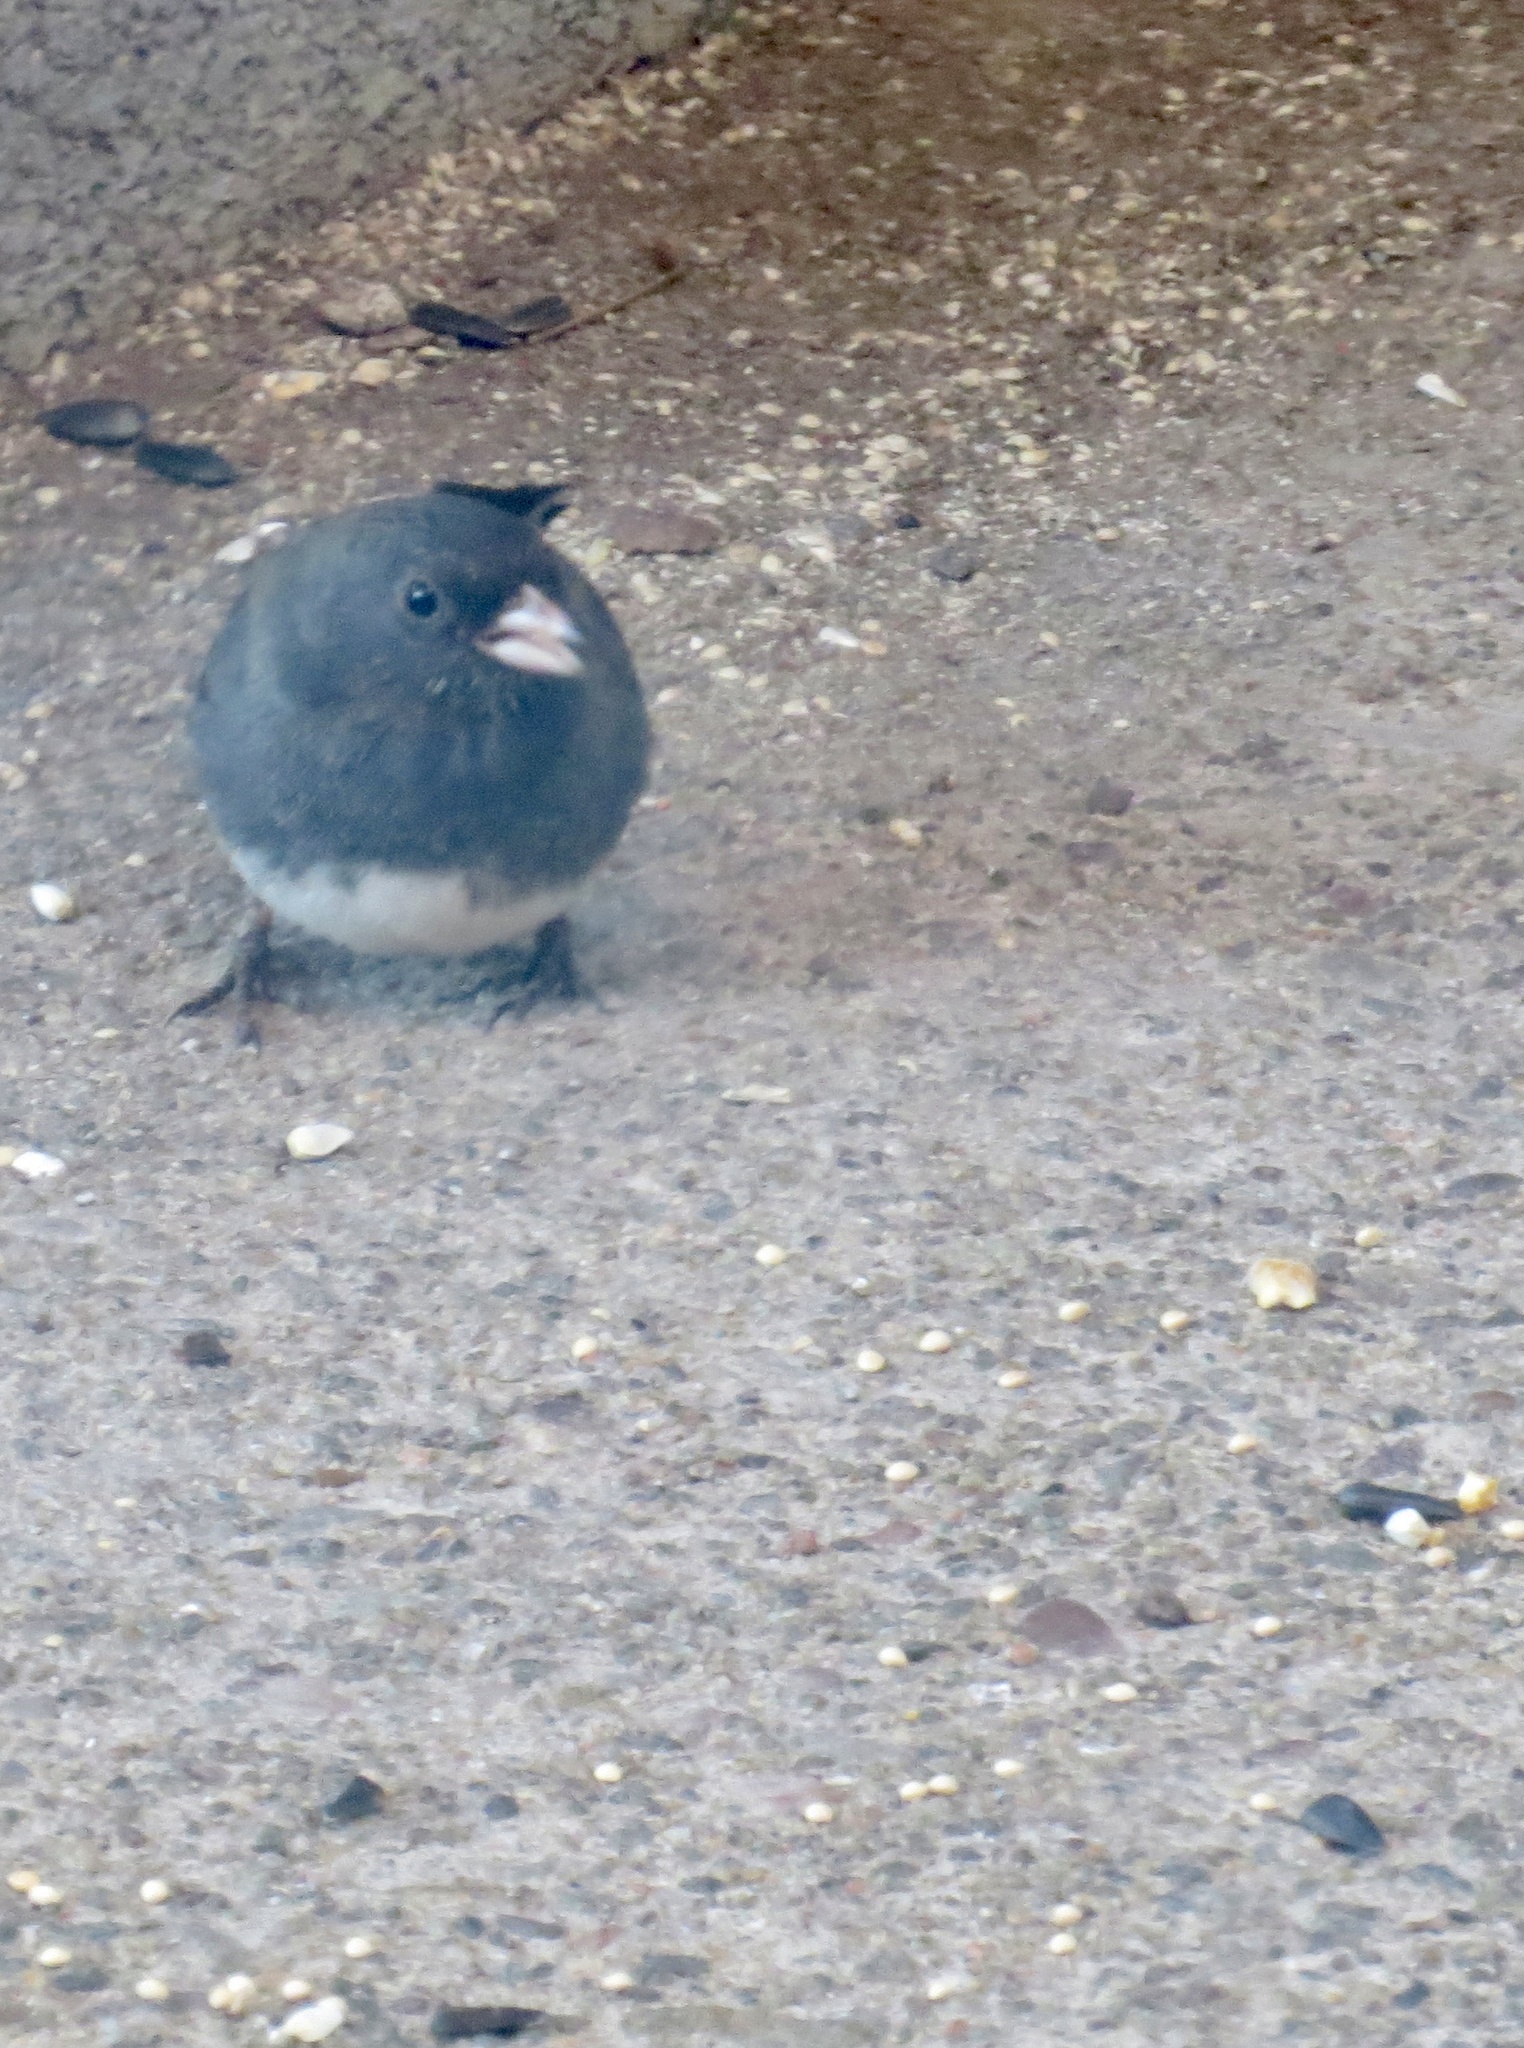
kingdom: Animalia
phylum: Chordata
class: Aves
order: Passeriformes
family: Passerellidae
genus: Junco
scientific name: Junco hyemalis
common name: Dark-eyed junco
